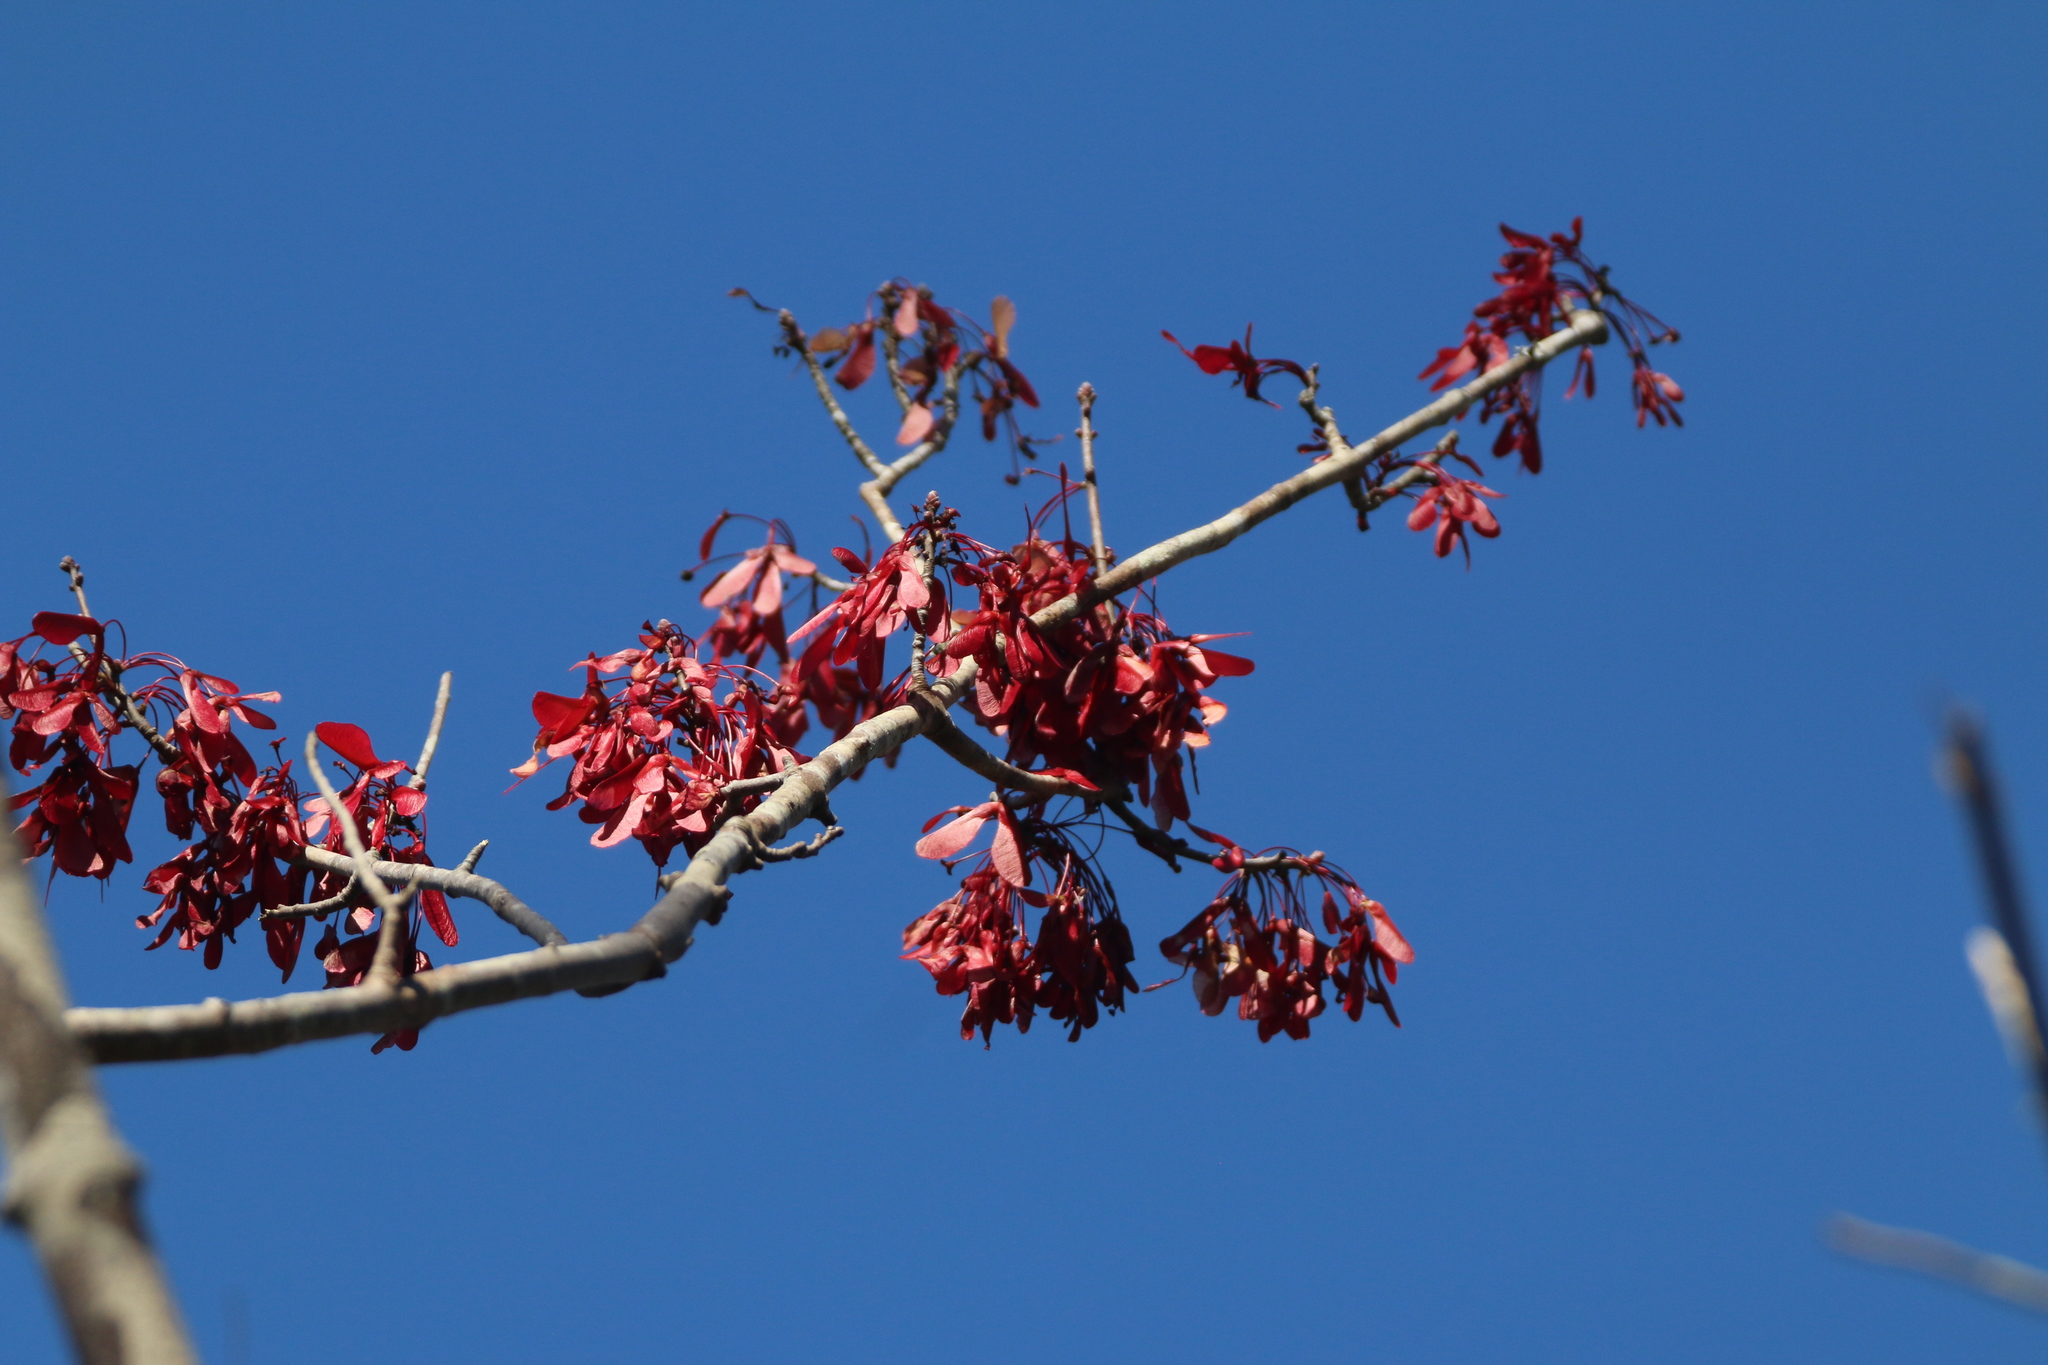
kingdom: Plantae
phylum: Tracheophyta
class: Magnoliopsida
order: Sapindales
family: Sapindaceae
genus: Acer
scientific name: Acer rubrum
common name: Red maple
